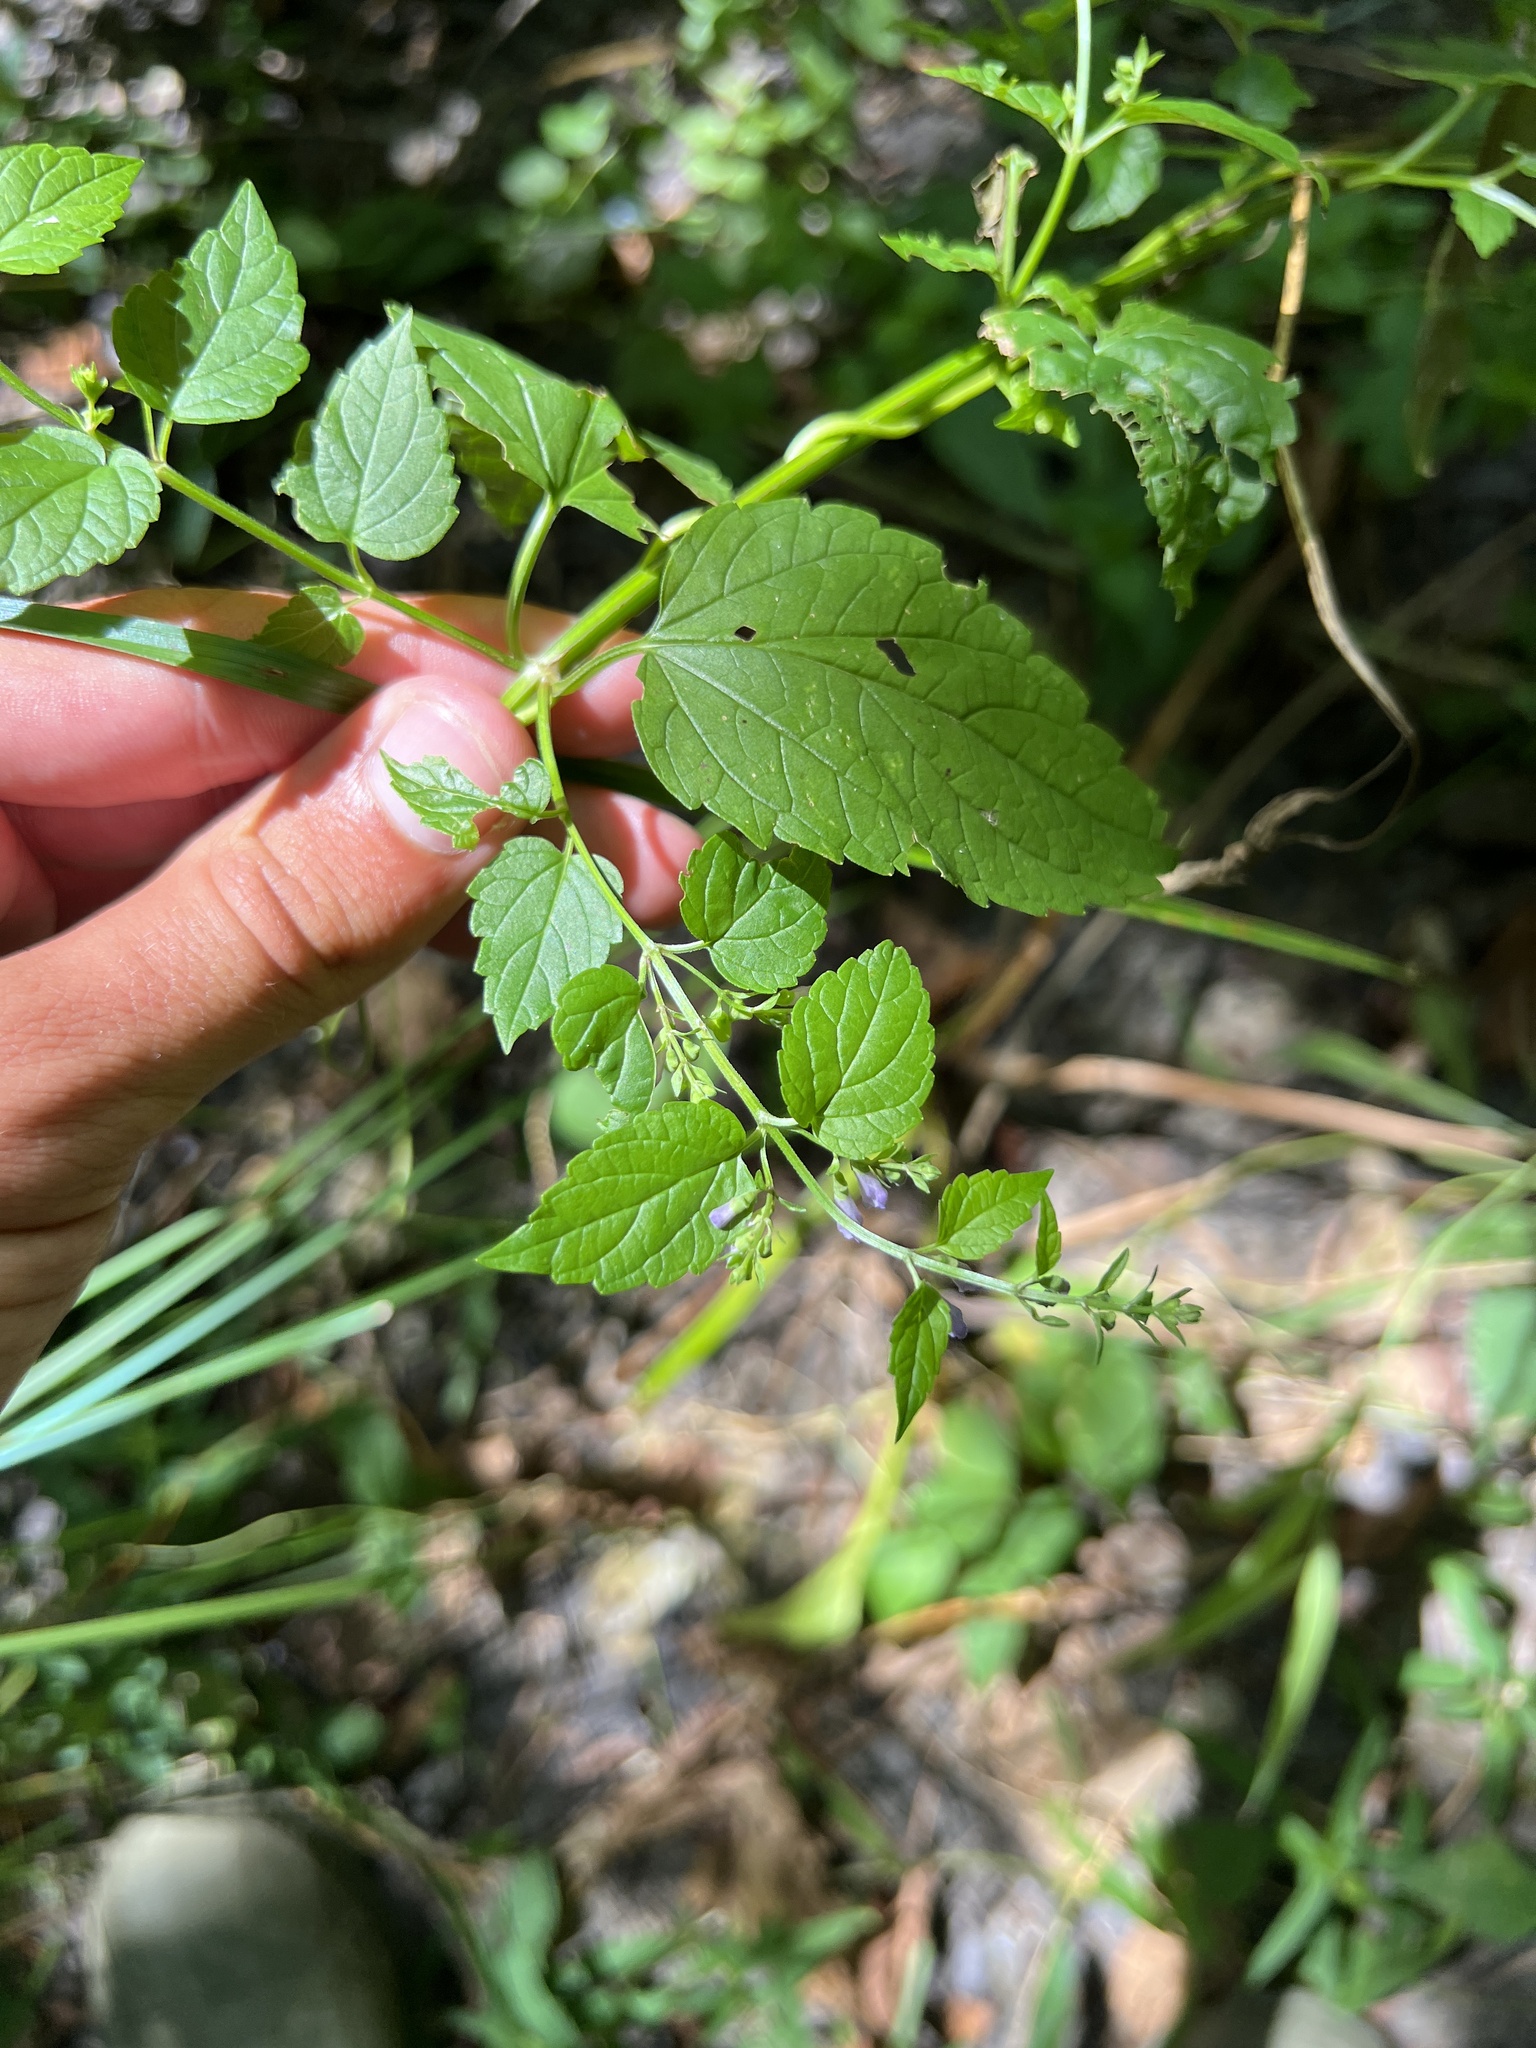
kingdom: Plantae
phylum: Tracheophyta
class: Magnoliopsida
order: Lamiales
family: Lamiaceae
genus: Scutellaria
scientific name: Scutellaria lateriflora
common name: Blue skullcap
